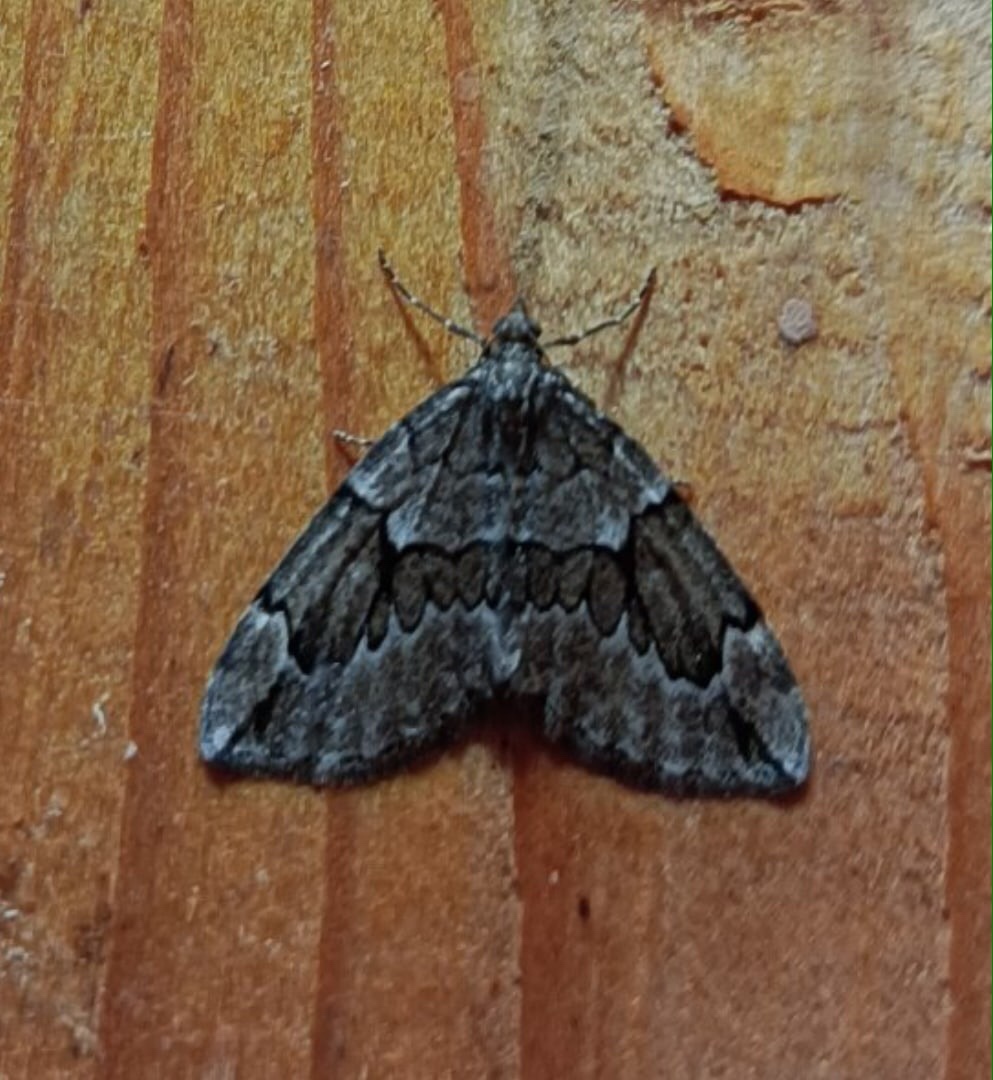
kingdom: Animalia
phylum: Arthropoda
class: Insecta
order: Lepidoptera
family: Geometridae
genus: Thera
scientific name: Thera juniperata
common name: Juniper carpet
